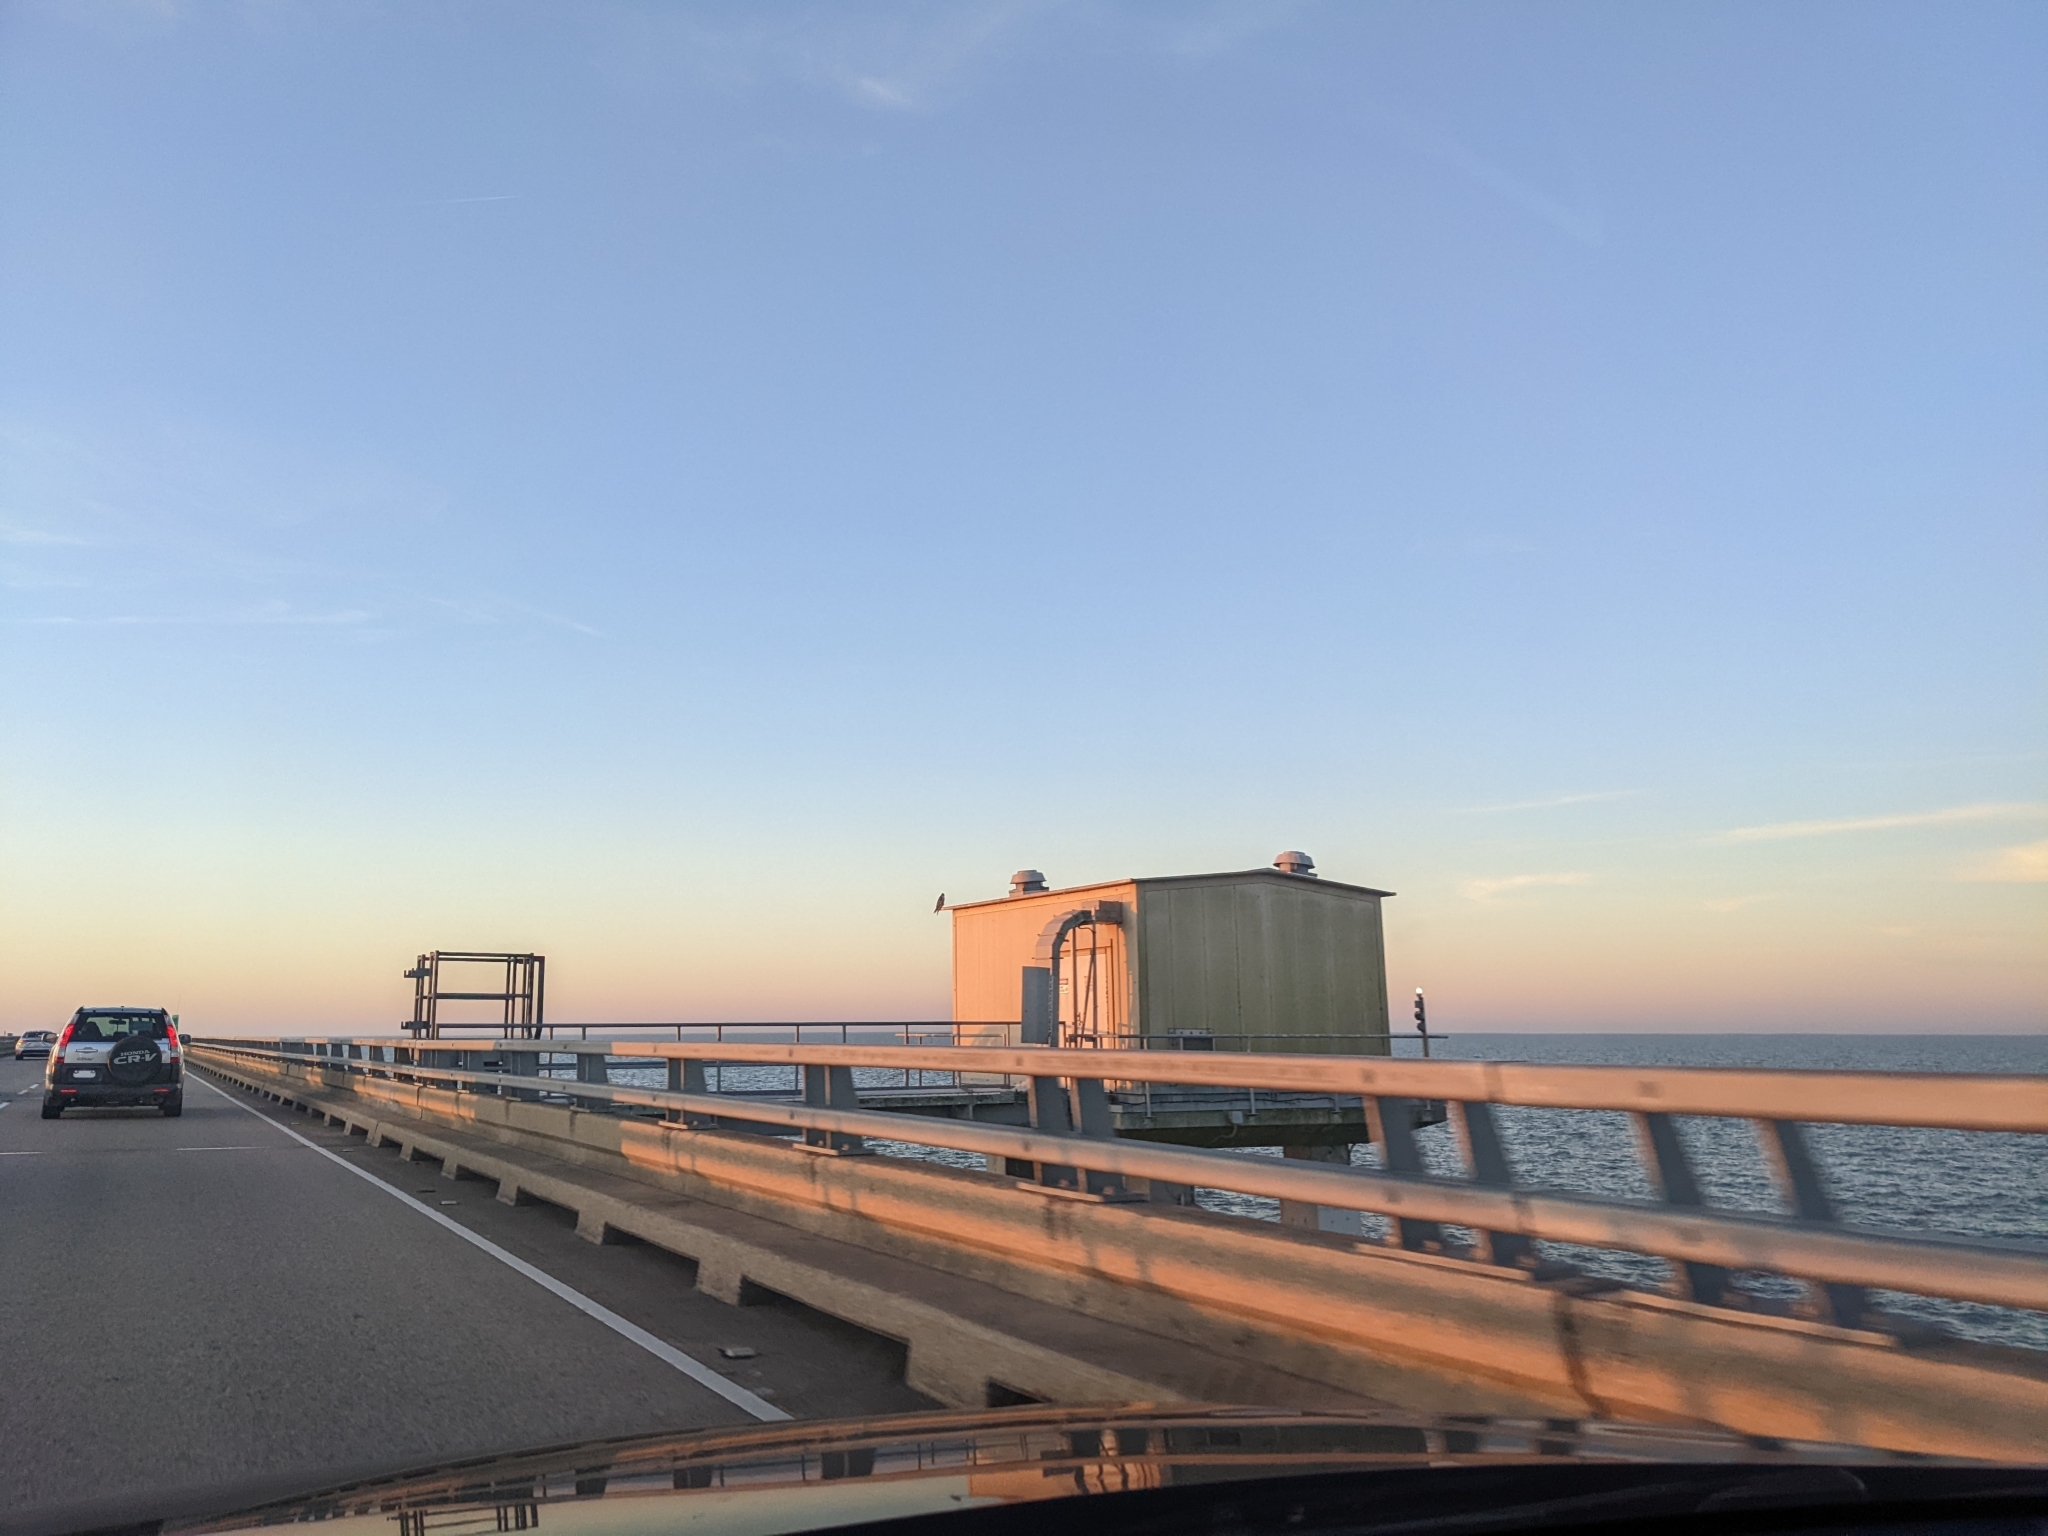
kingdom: Animalia
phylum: Chordata
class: Aves
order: Falconiformes
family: Falconidae
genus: Falco
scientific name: Falco peregrinus
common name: Peregrine falcon
